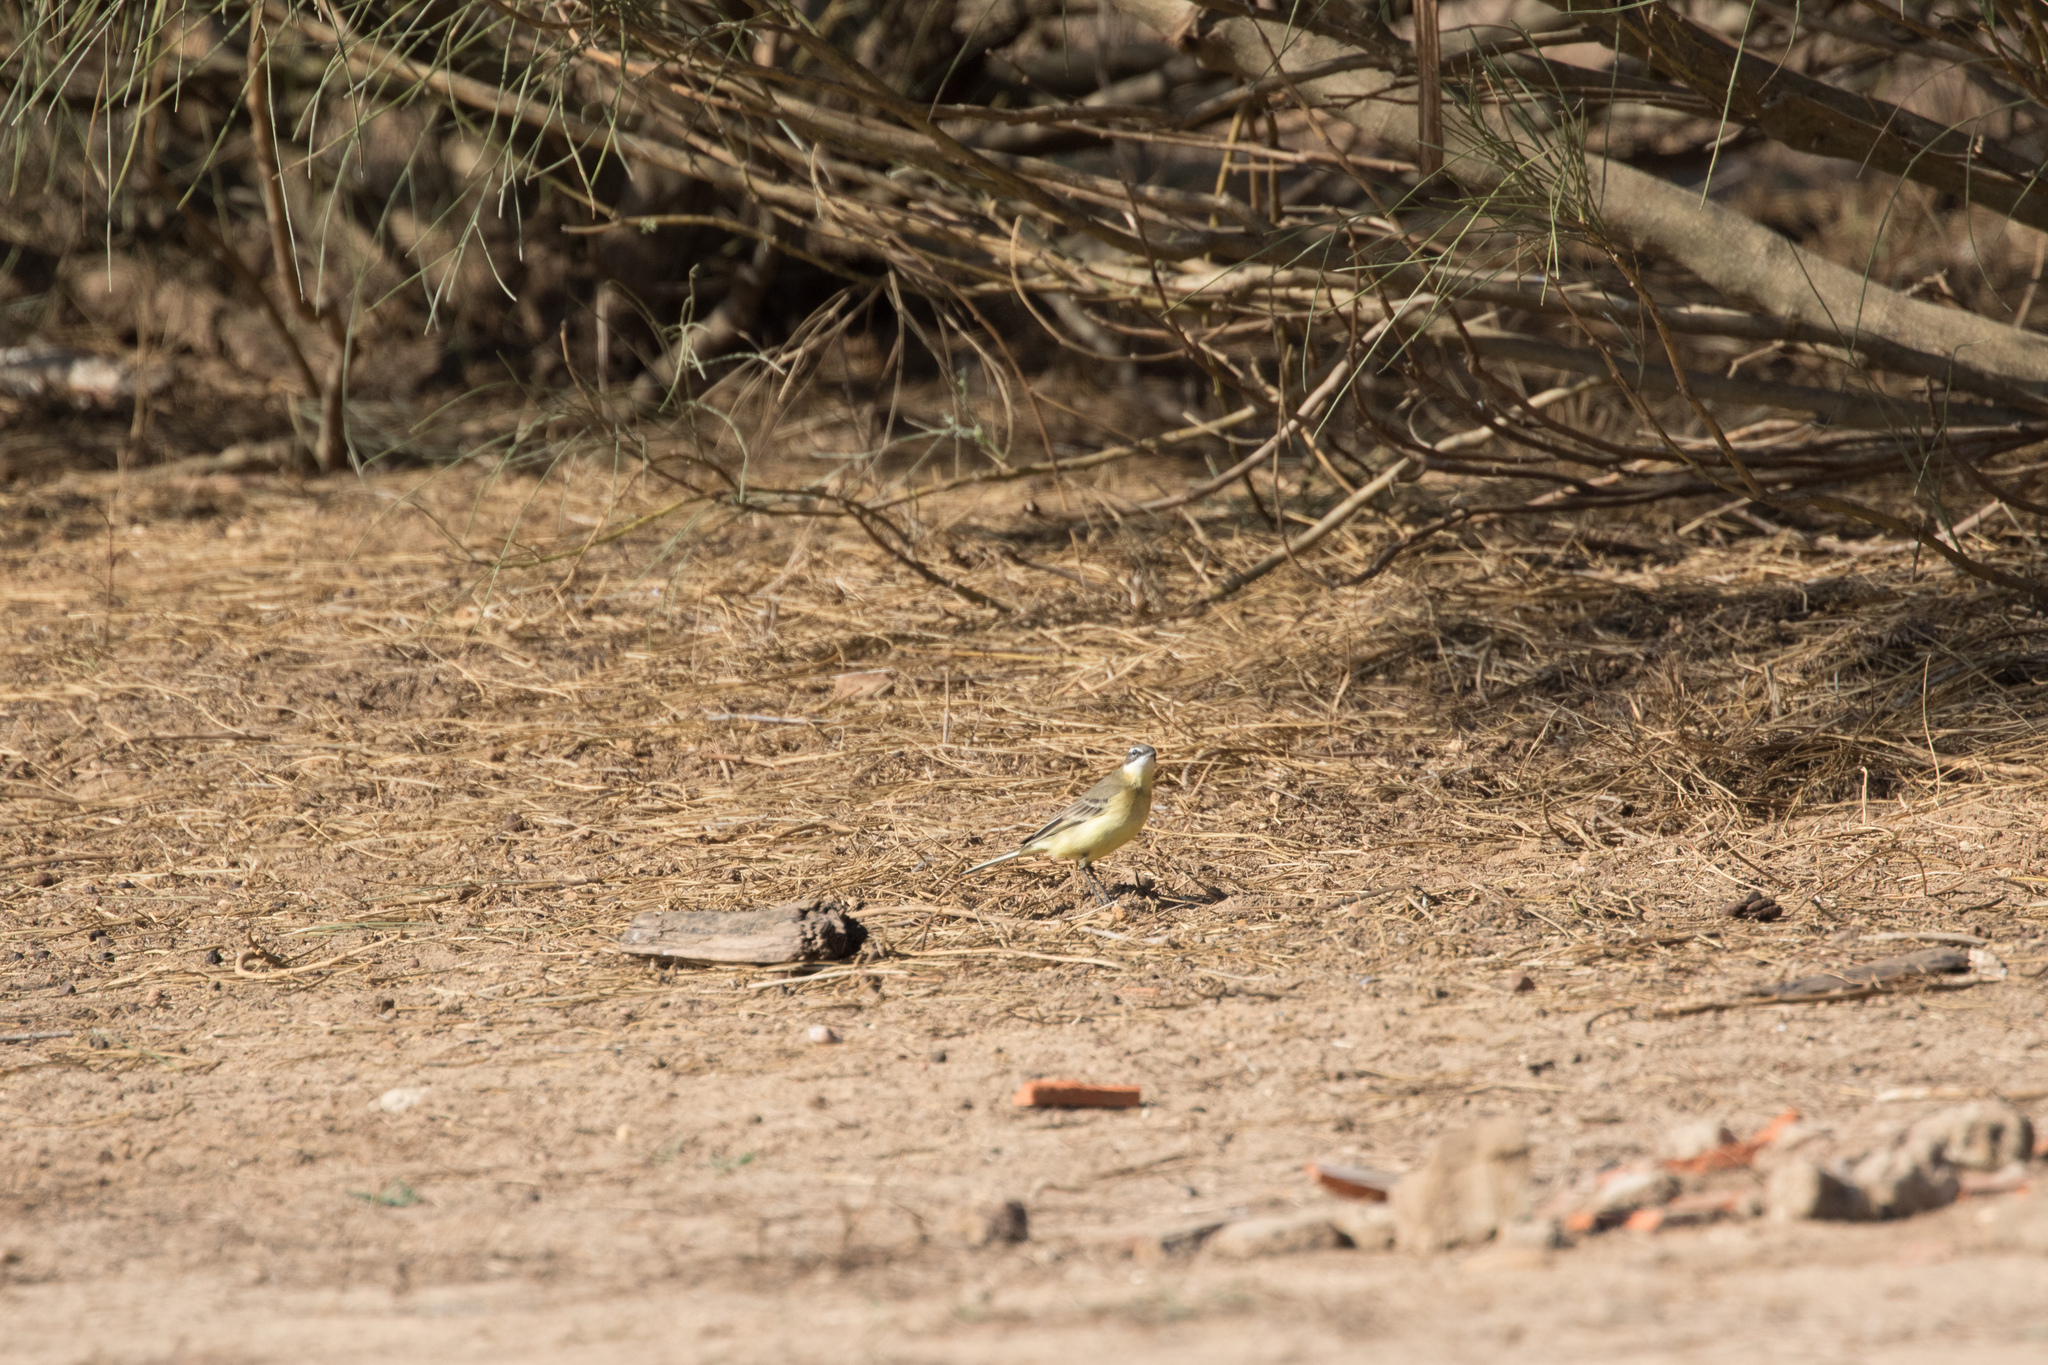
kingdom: Animalia
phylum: Chordata
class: Aves
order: Passeriformes
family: Motacillidae
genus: Motacilla
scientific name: Motacilla flava
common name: Western yellow wagtail
